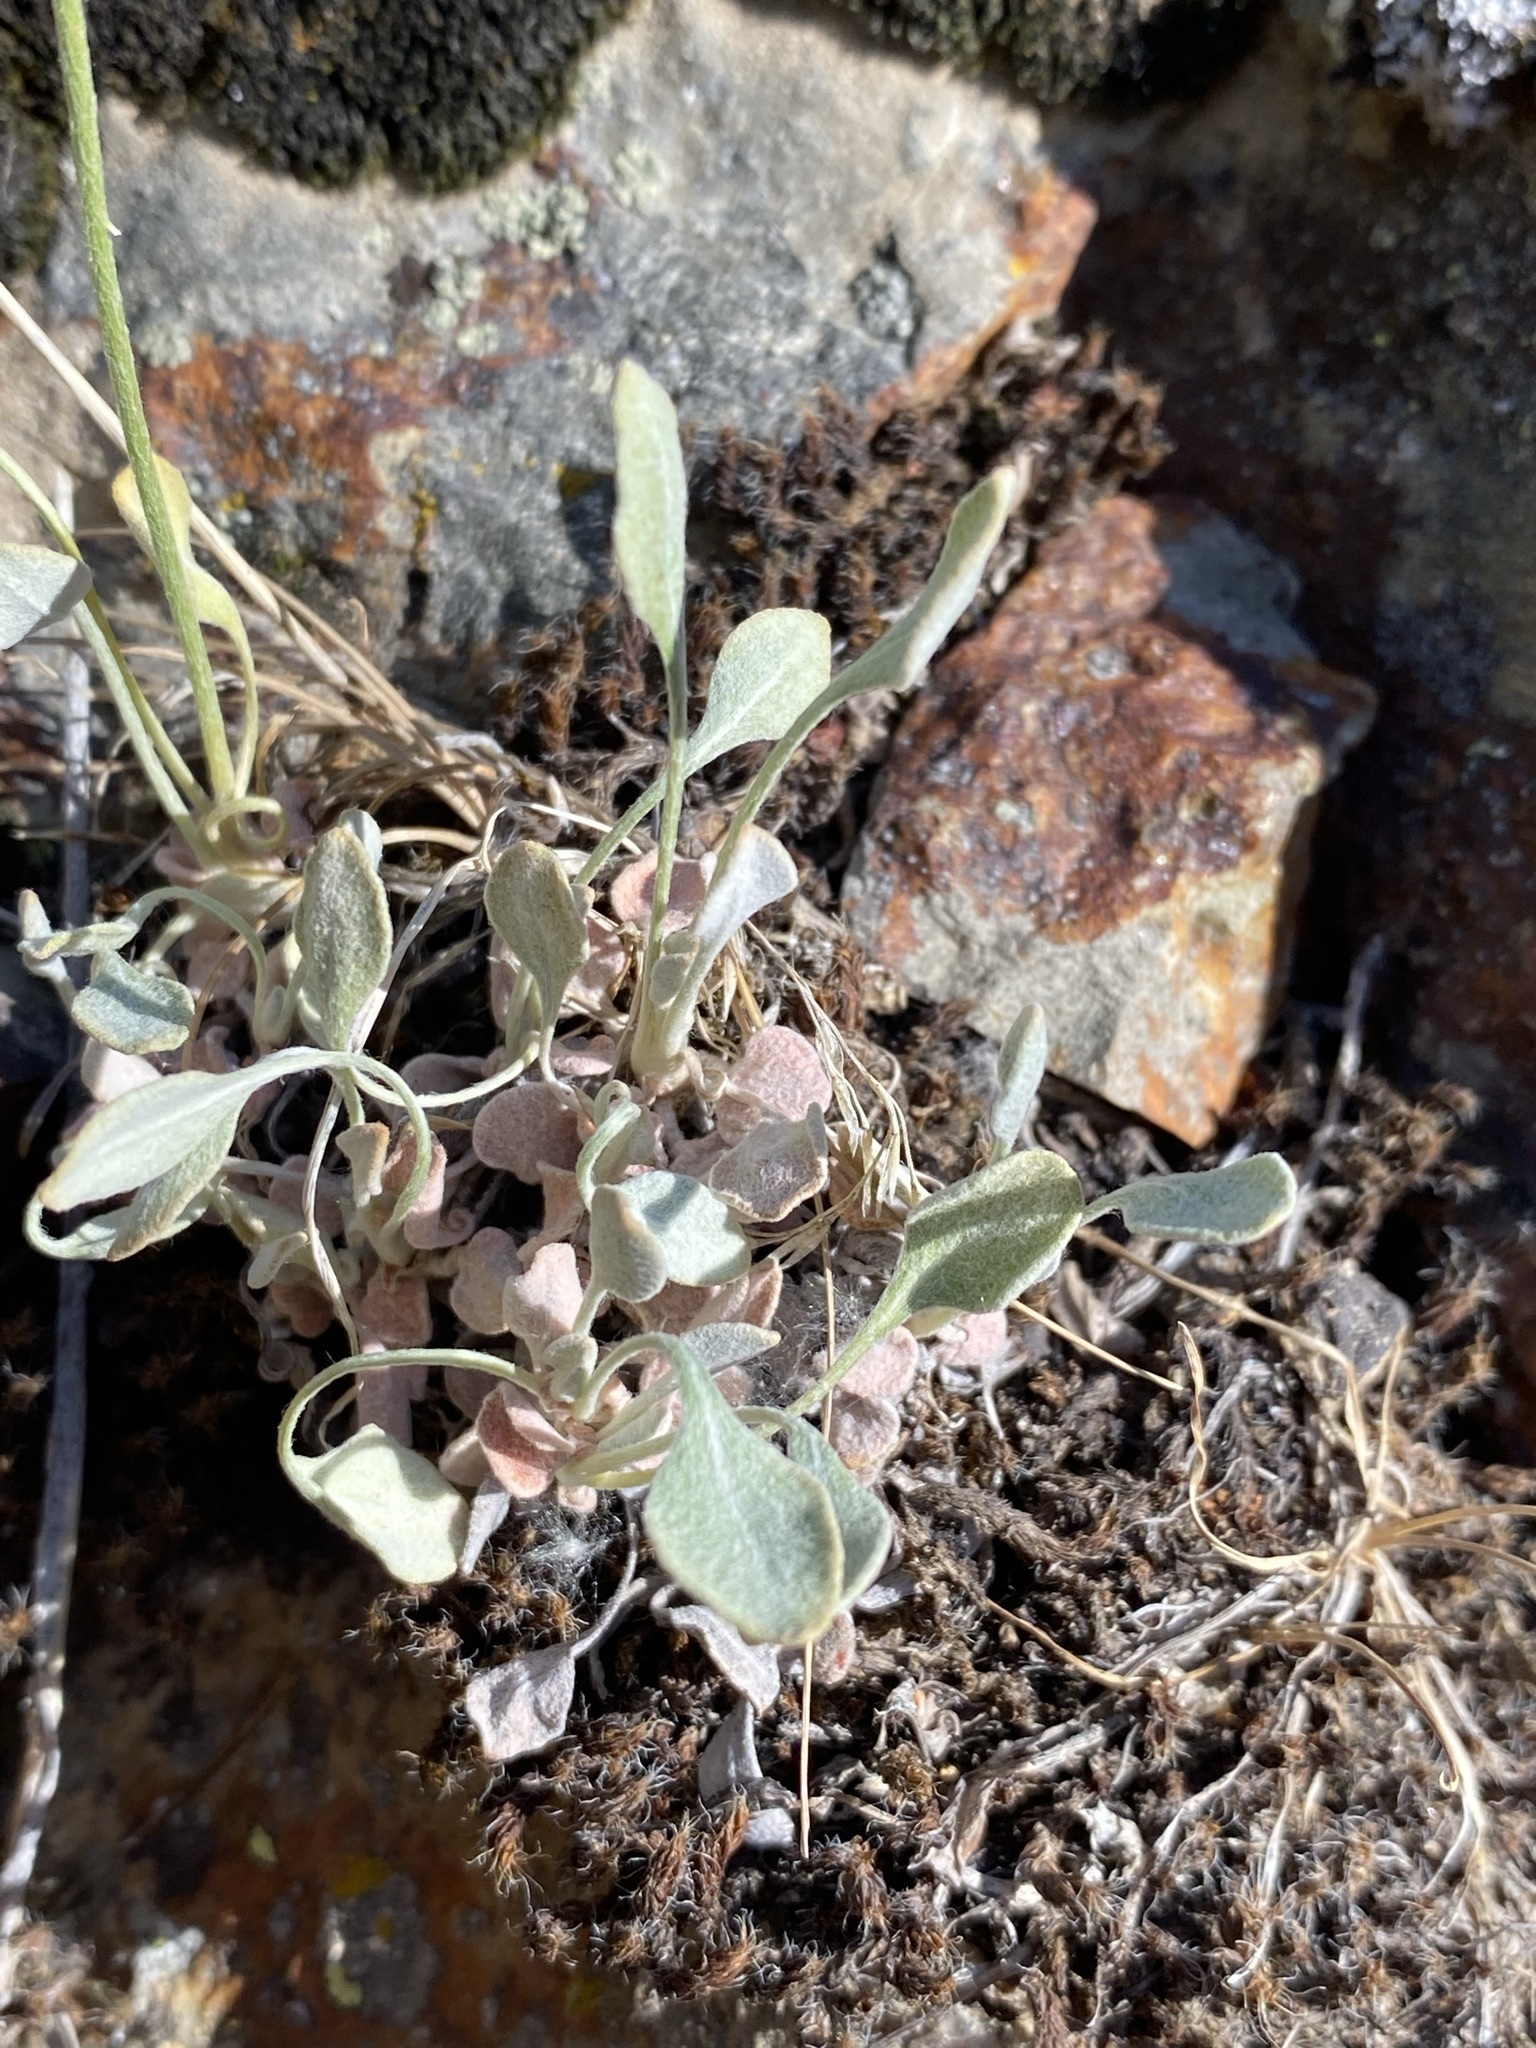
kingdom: Plantae
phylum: Tracheophyta
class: Magnoliopsida
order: Caryophyllales
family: Polygonaceae
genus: Eriogonum
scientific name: Eriogonum strictum
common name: Blue mountain buckwheat
